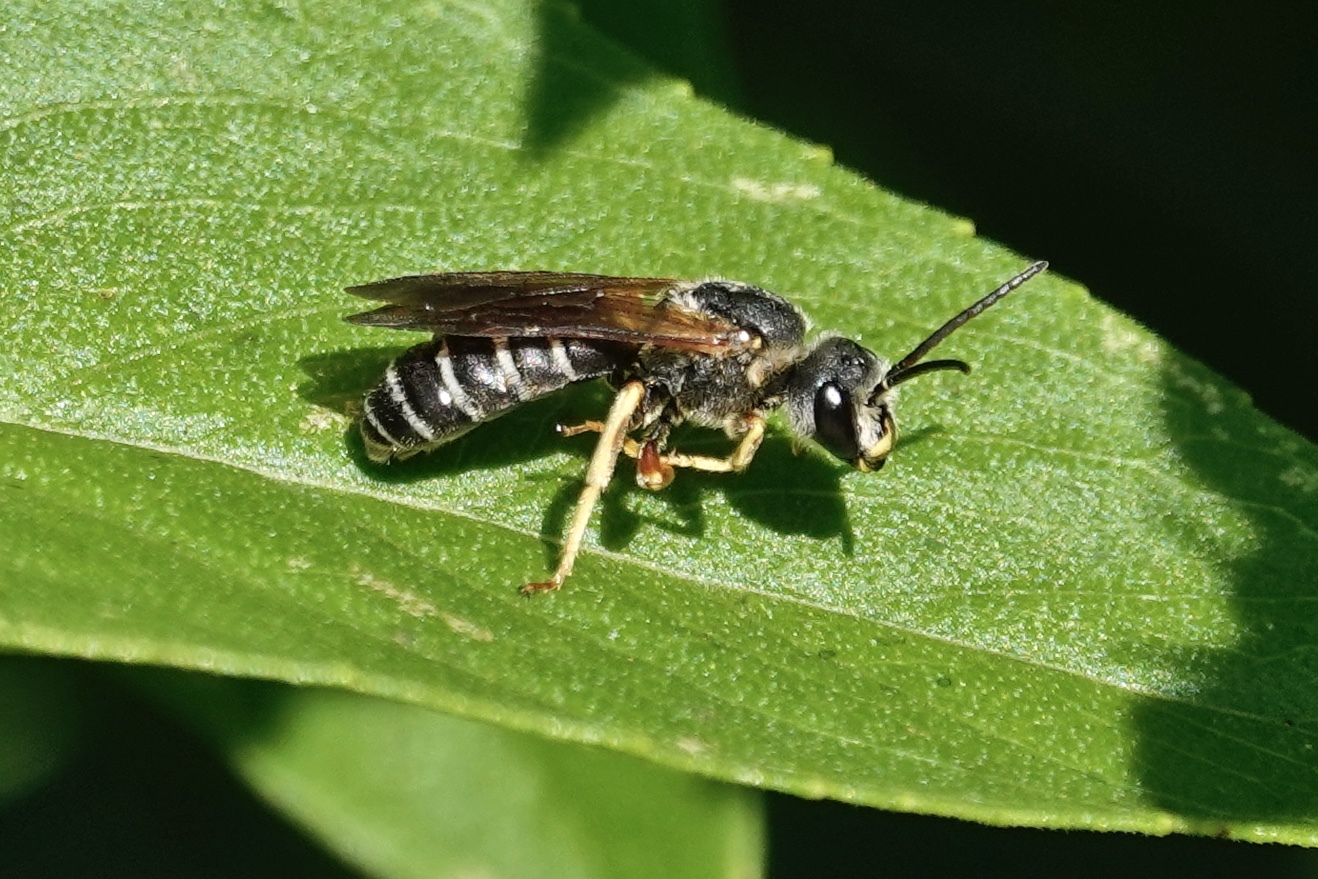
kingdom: Animalia
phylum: Arthropoda
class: Insecta
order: Hymenoptera
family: Halictidae
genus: Halictus
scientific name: Halictus parallelus
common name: Parallel-striped sweat bee
